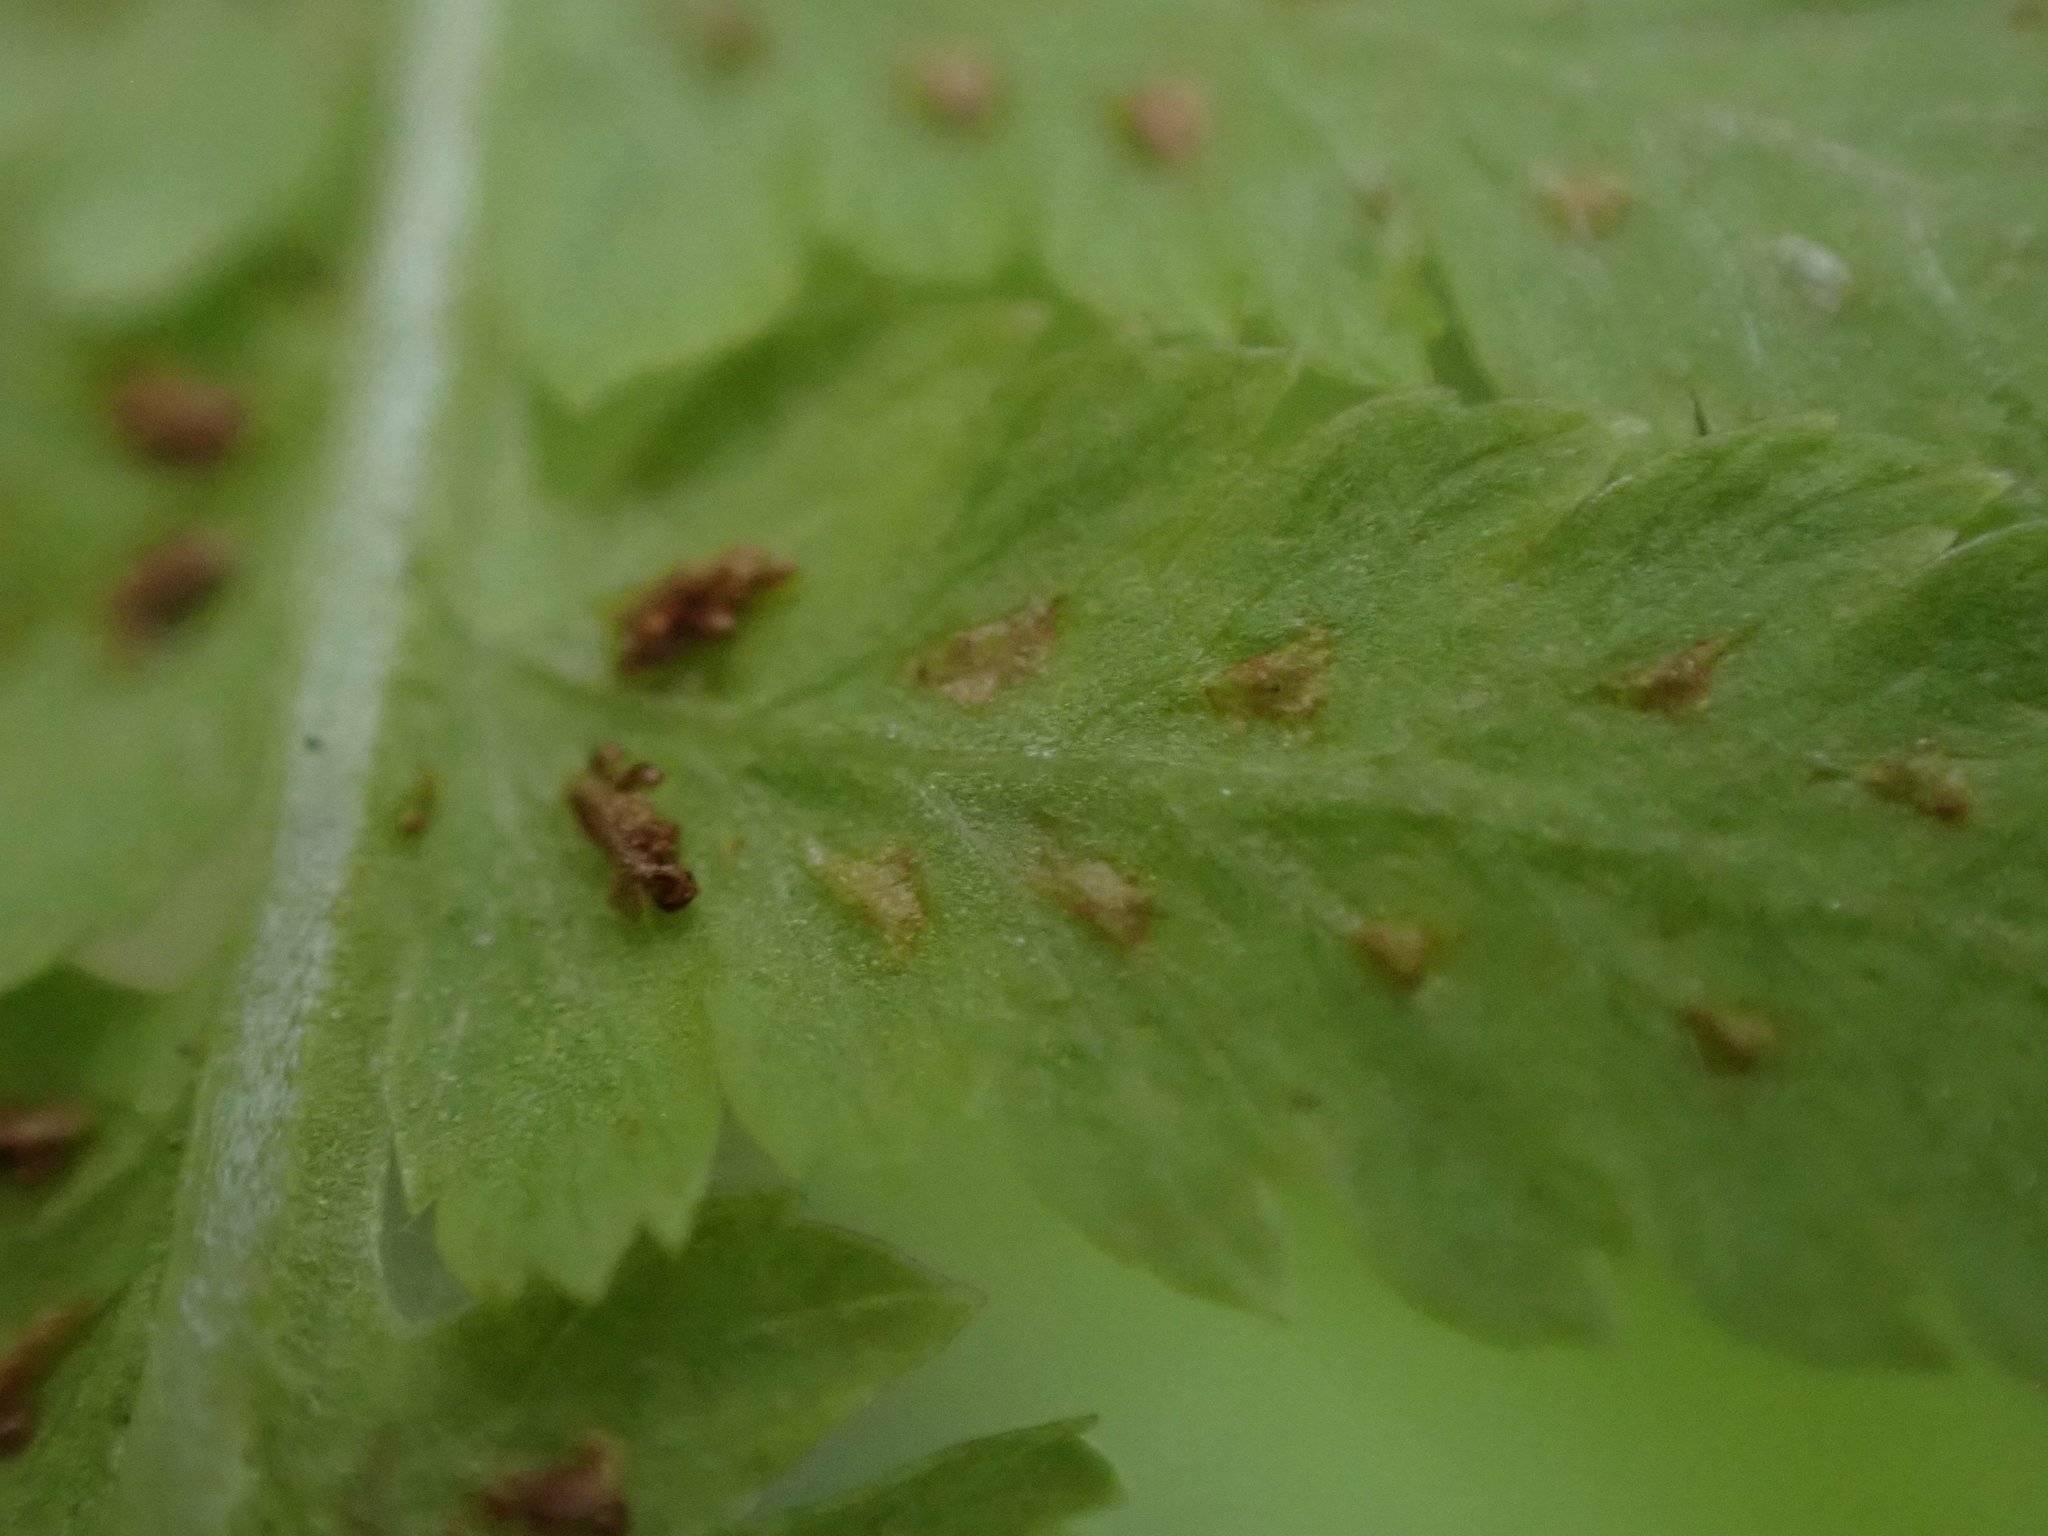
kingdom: Plantae
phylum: Tracheophyta
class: Polypodiopsida
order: Polypodiales
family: Athyriaceae
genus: Athyrium
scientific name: Athyrium angustum
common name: Northern lady fern
